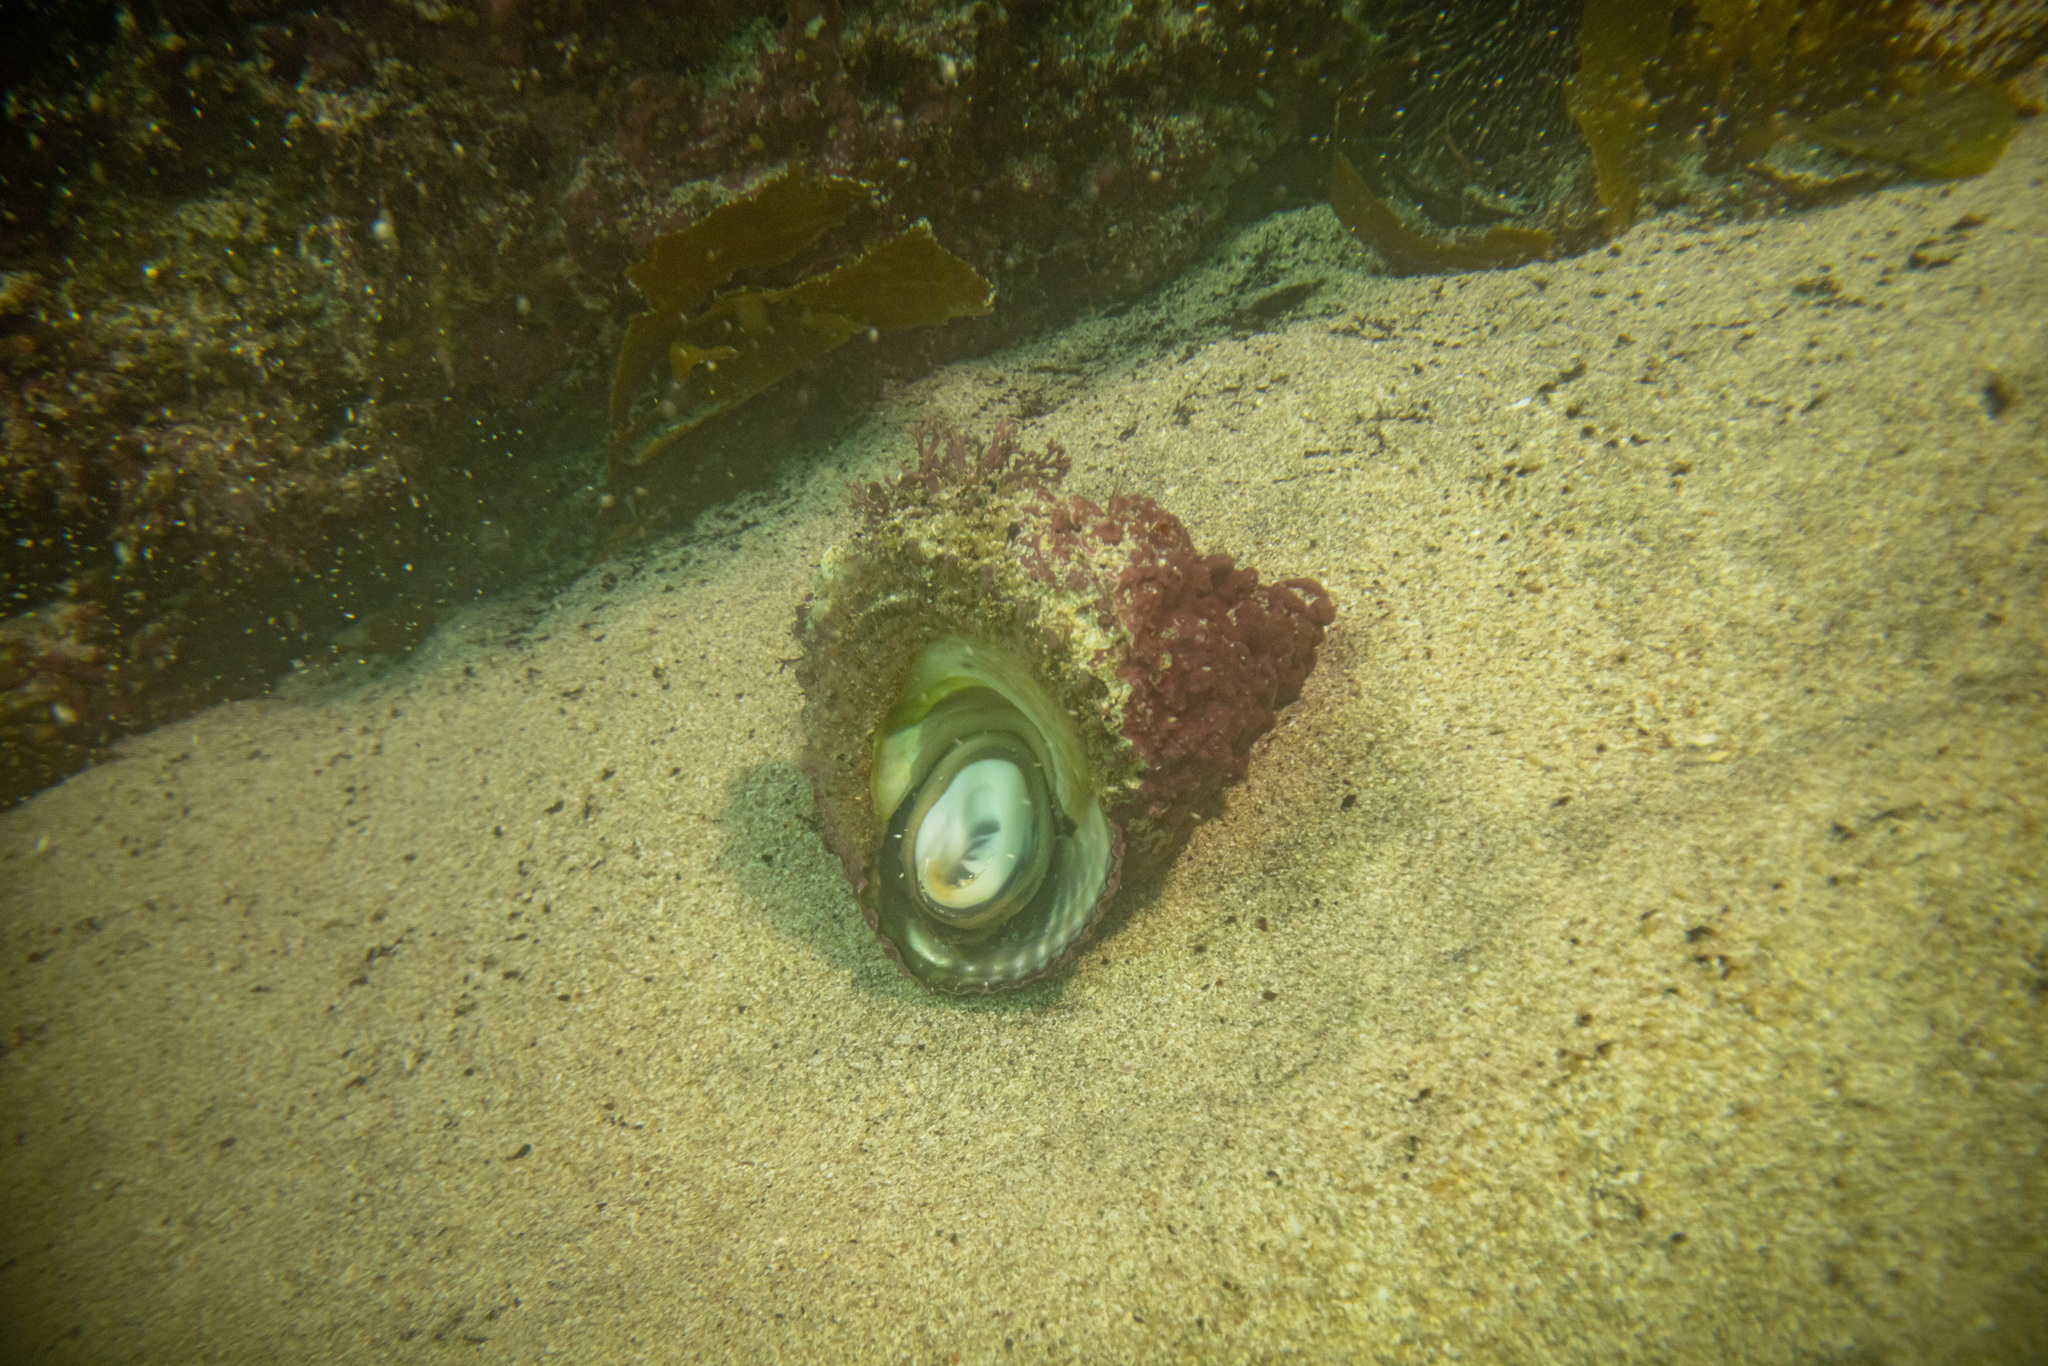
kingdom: Animalia
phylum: Mollusca
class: Gastropoda
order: Trochida
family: Turbinidae
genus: Cookia
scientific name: Cookia sulcata
